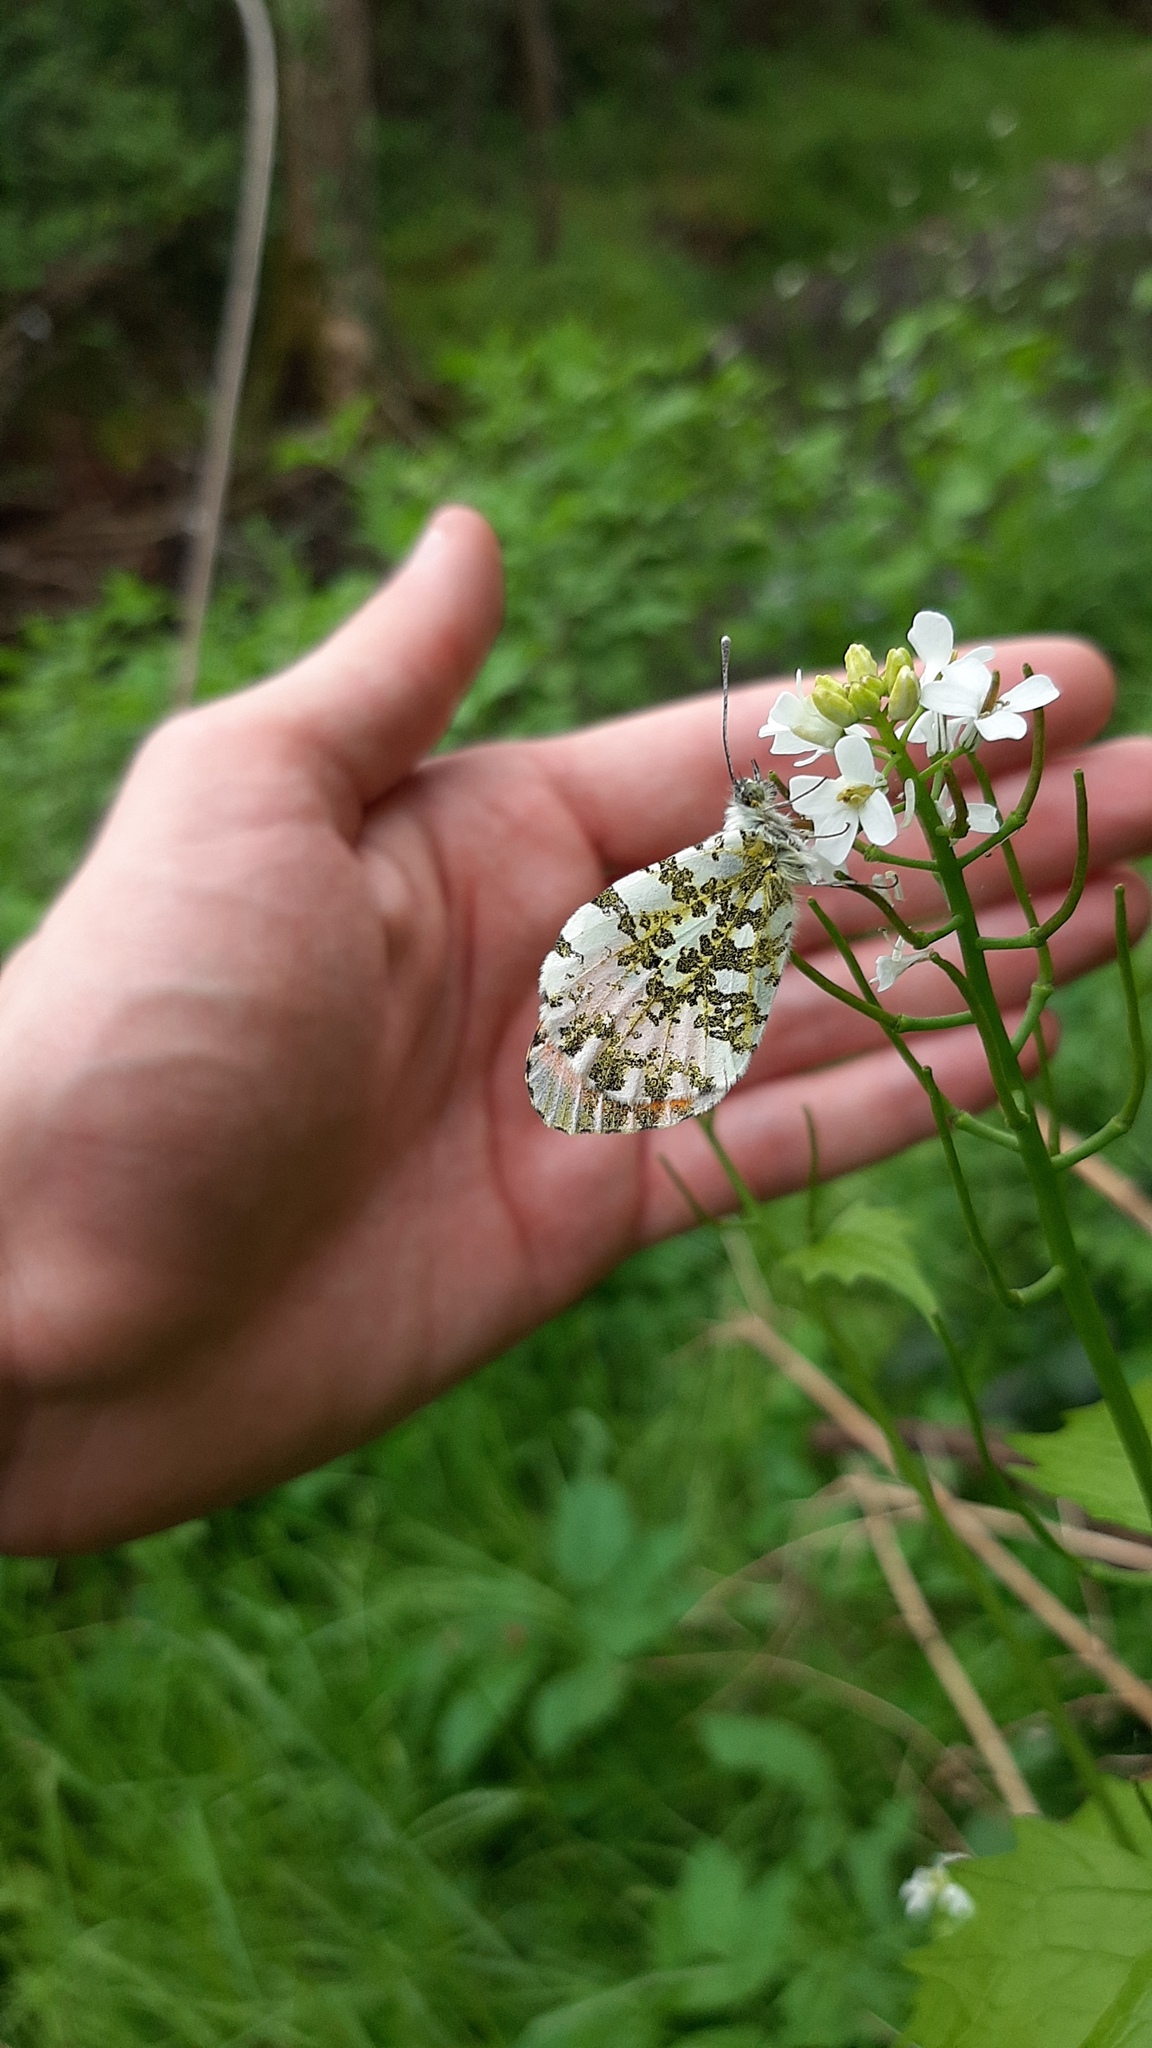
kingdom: Animalia
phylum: Arthropoda
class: Insecta
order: Lepidoptera
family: Pieridae
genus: Anthocharis
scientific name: Anthocharis cardamines
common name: Orange-tip
